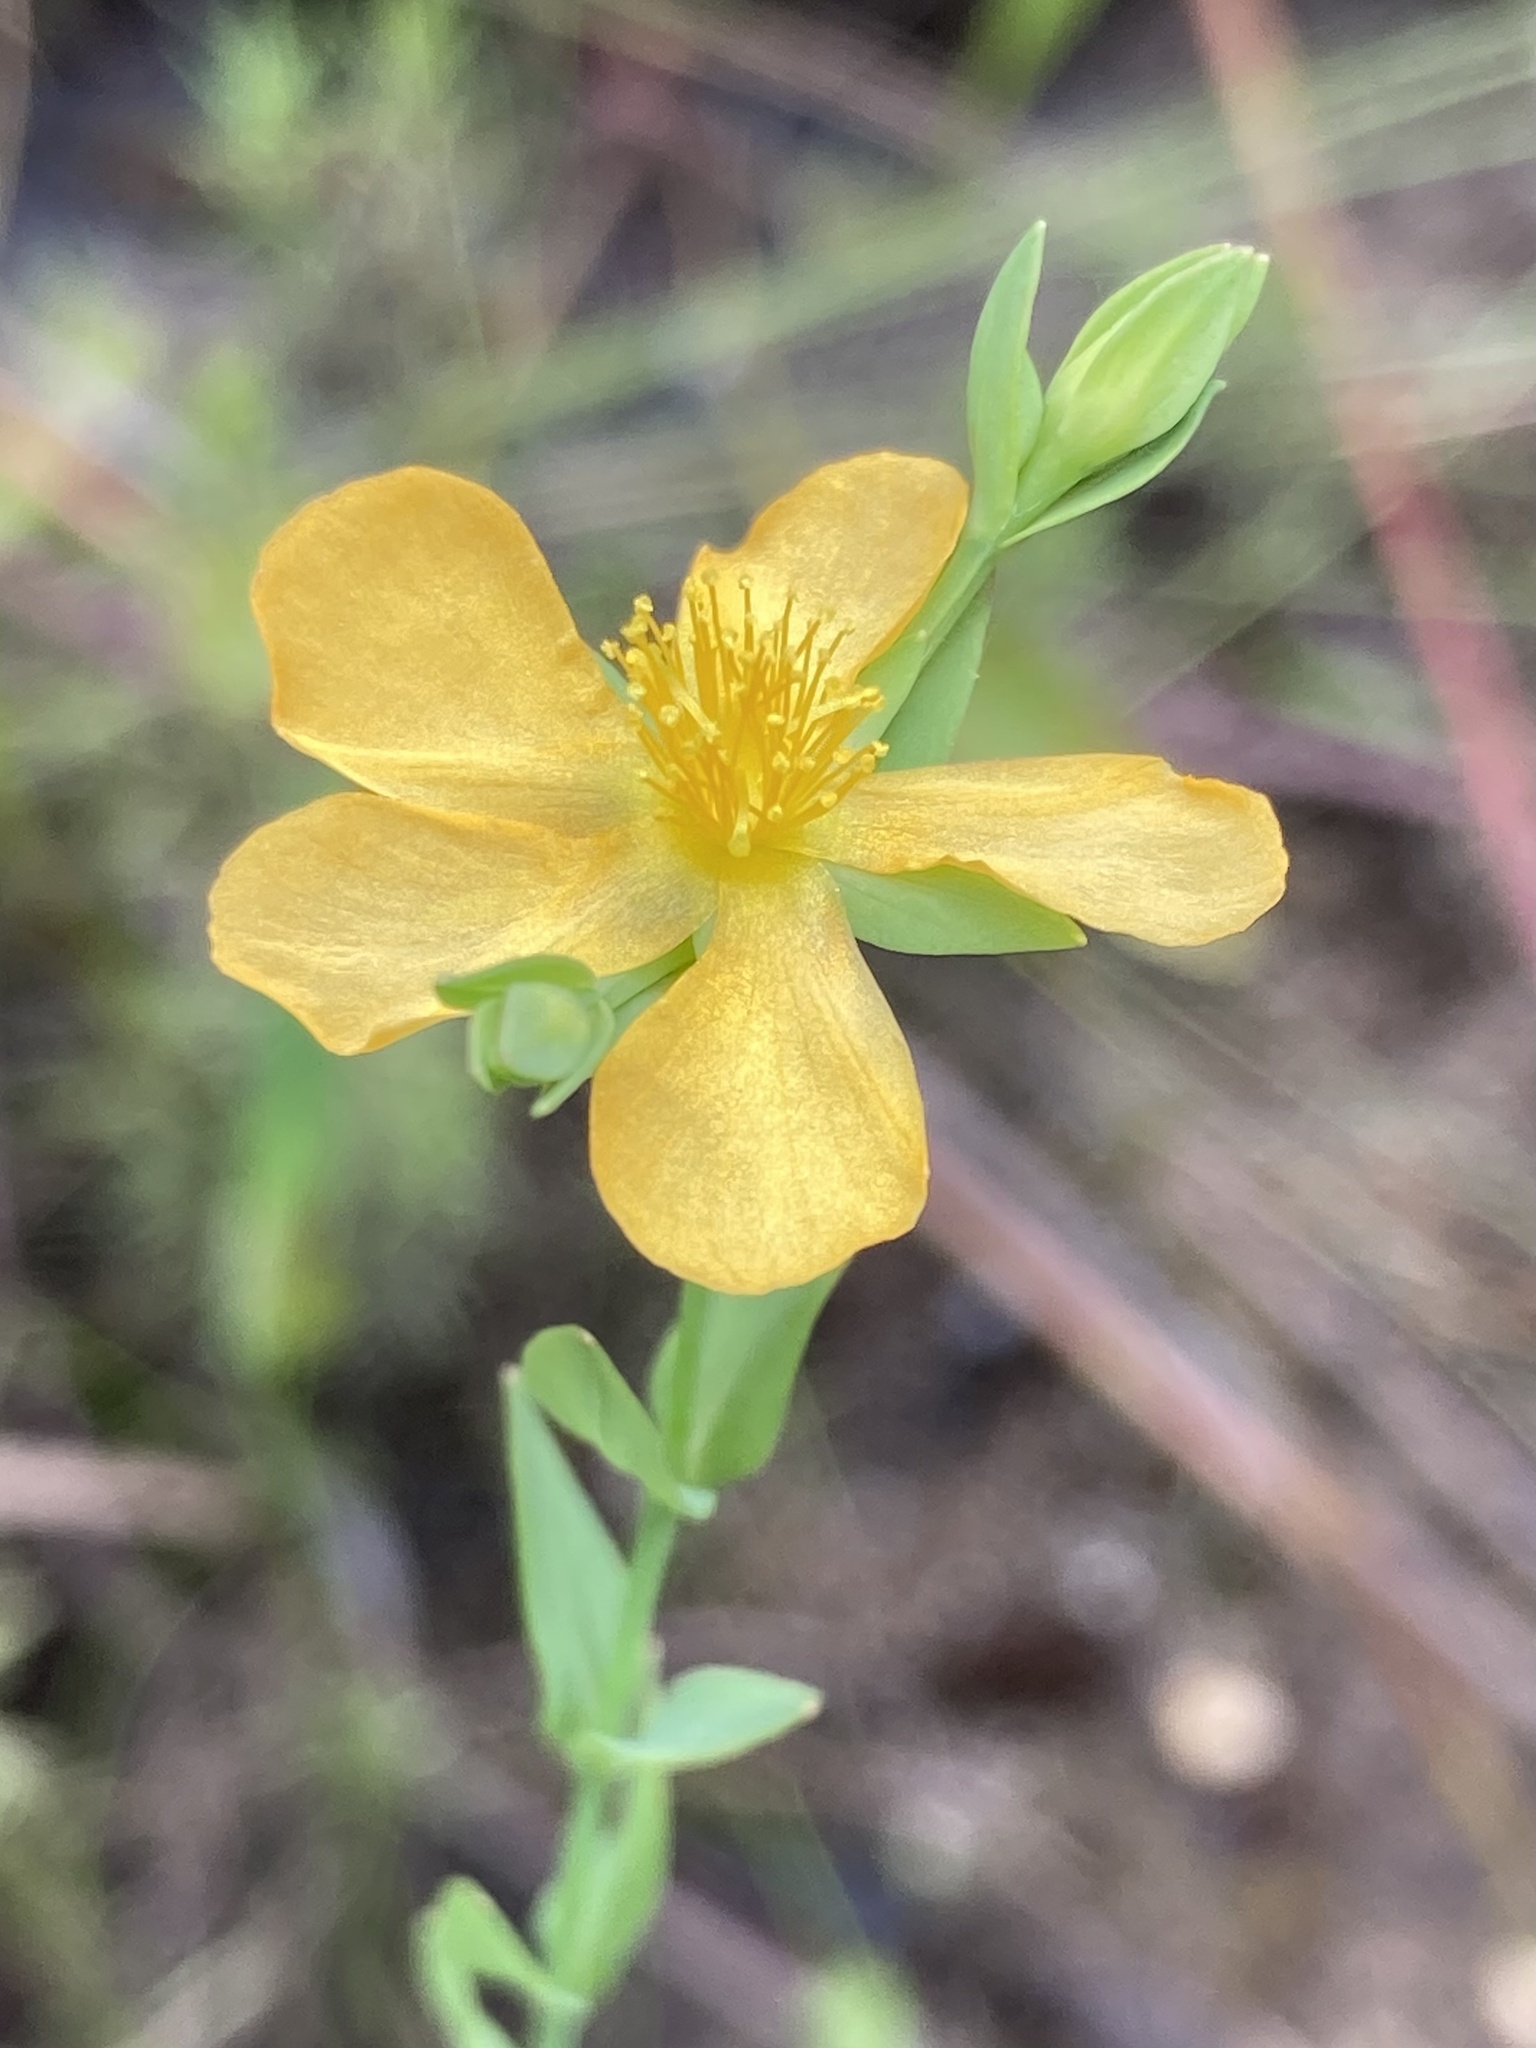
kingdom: Plantae
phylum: Tracheophyta
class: Magnoliopsida
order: Malpighiales
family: Hypericaceae
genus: Hypericum
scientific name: Hypericum denticulatum
